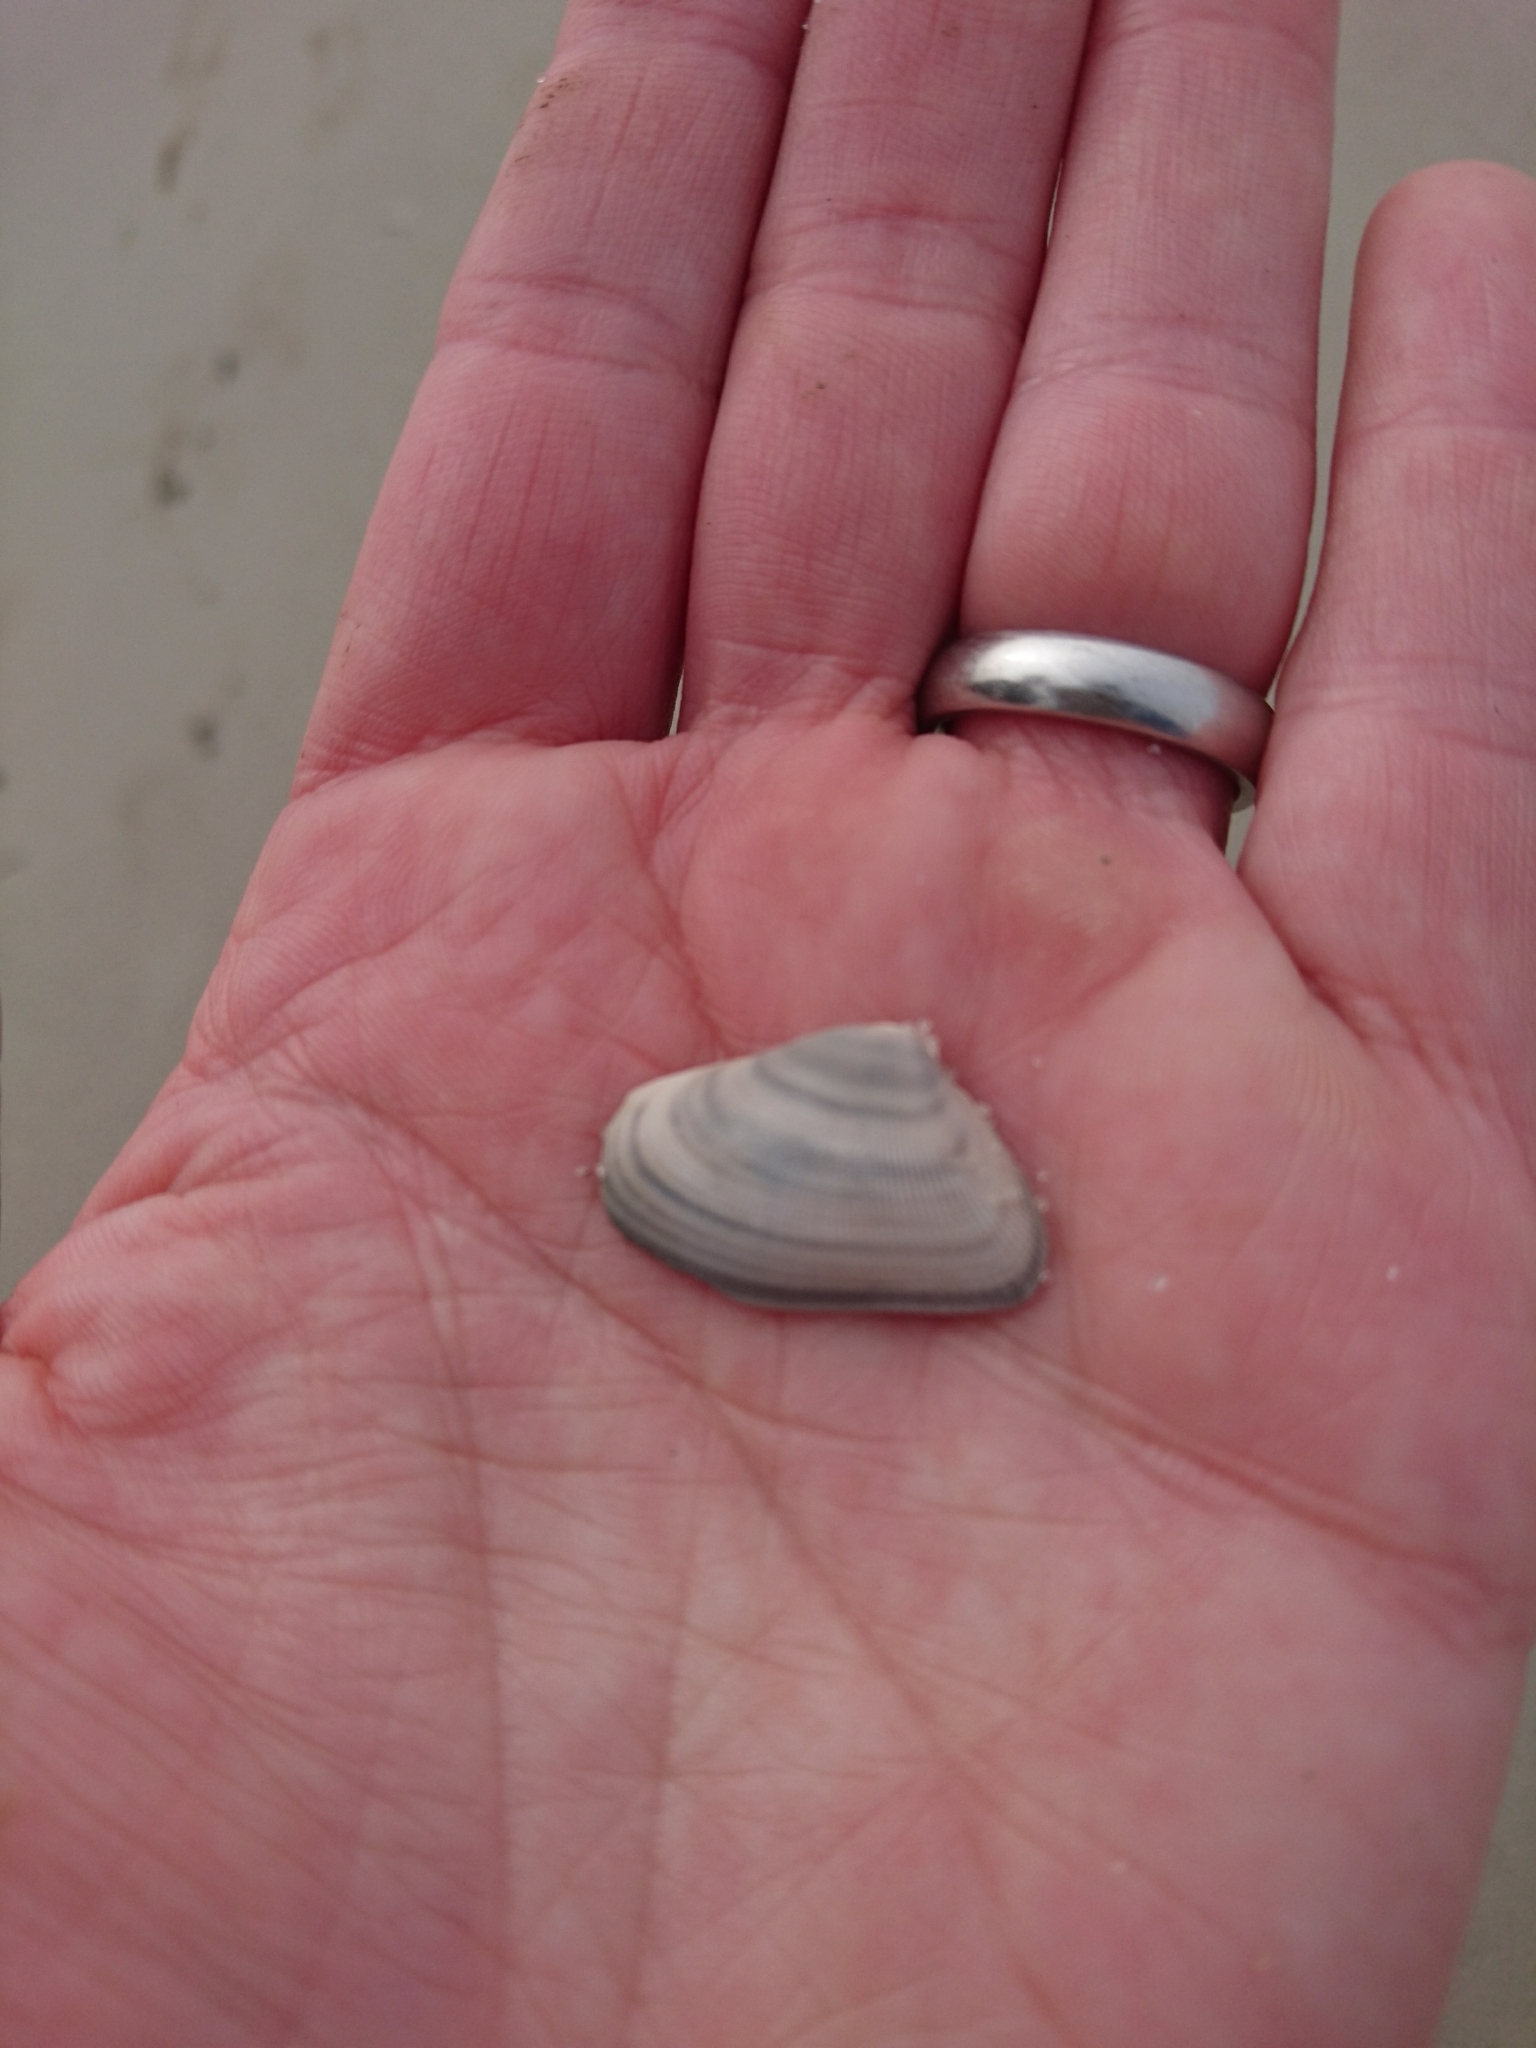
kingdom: Animalia
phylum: Mollusca
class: Bivalvia
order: Cardiida
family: Donacidae
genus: Donax
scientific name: Donax variabilis
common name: Butterfly shell
